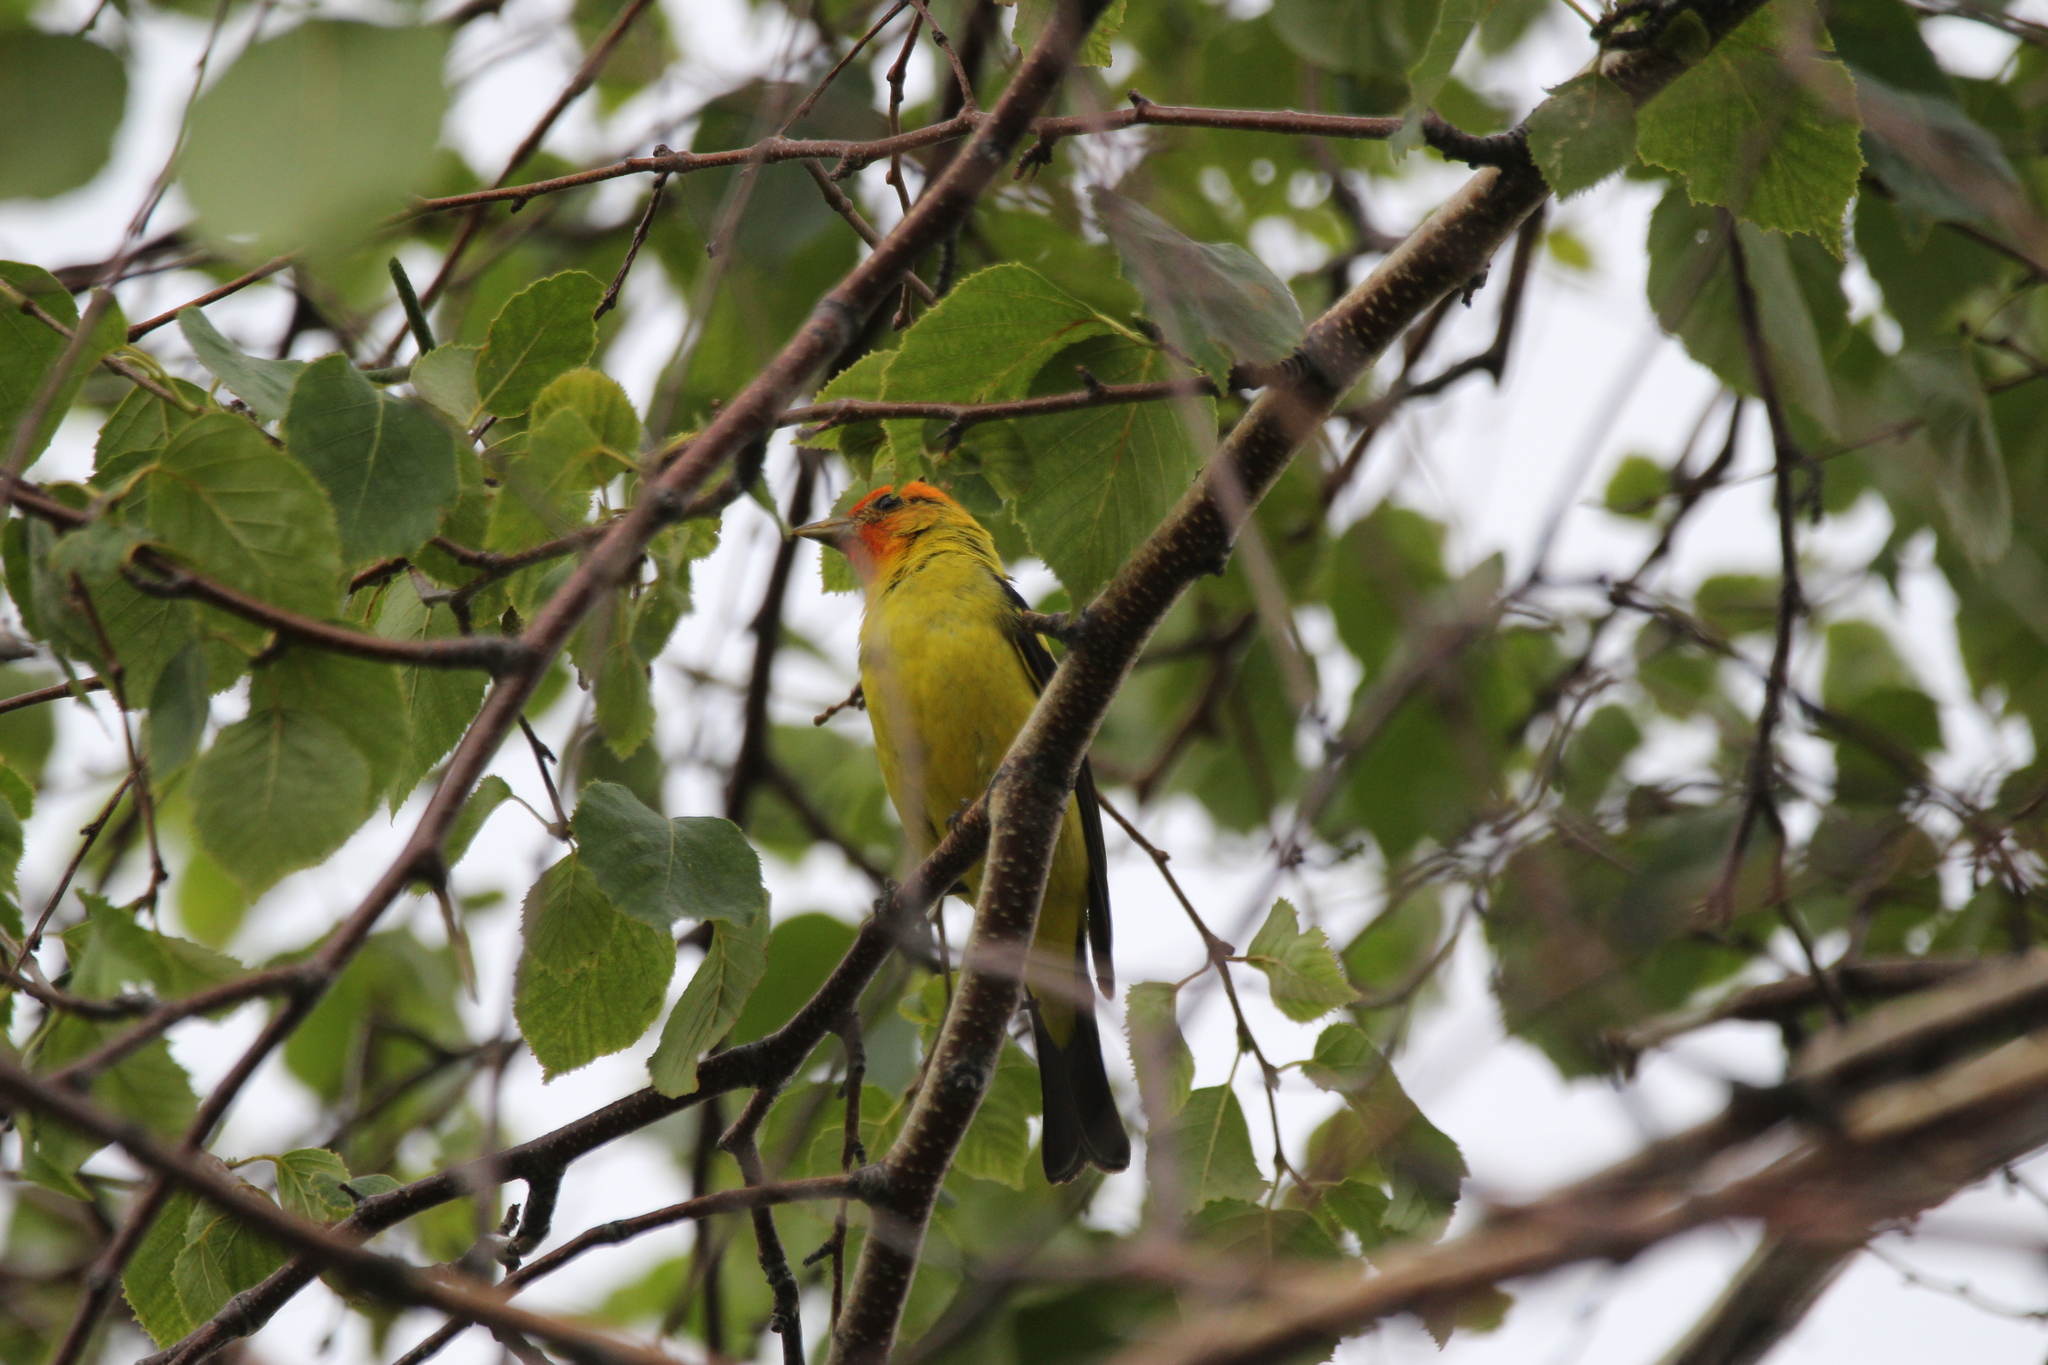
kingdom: Animalia
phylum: Chordata
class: Aves
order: Passeriformes
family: Cardinalidae
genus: Piranga
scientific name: Piranga ludoviciana
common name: Western tanager
